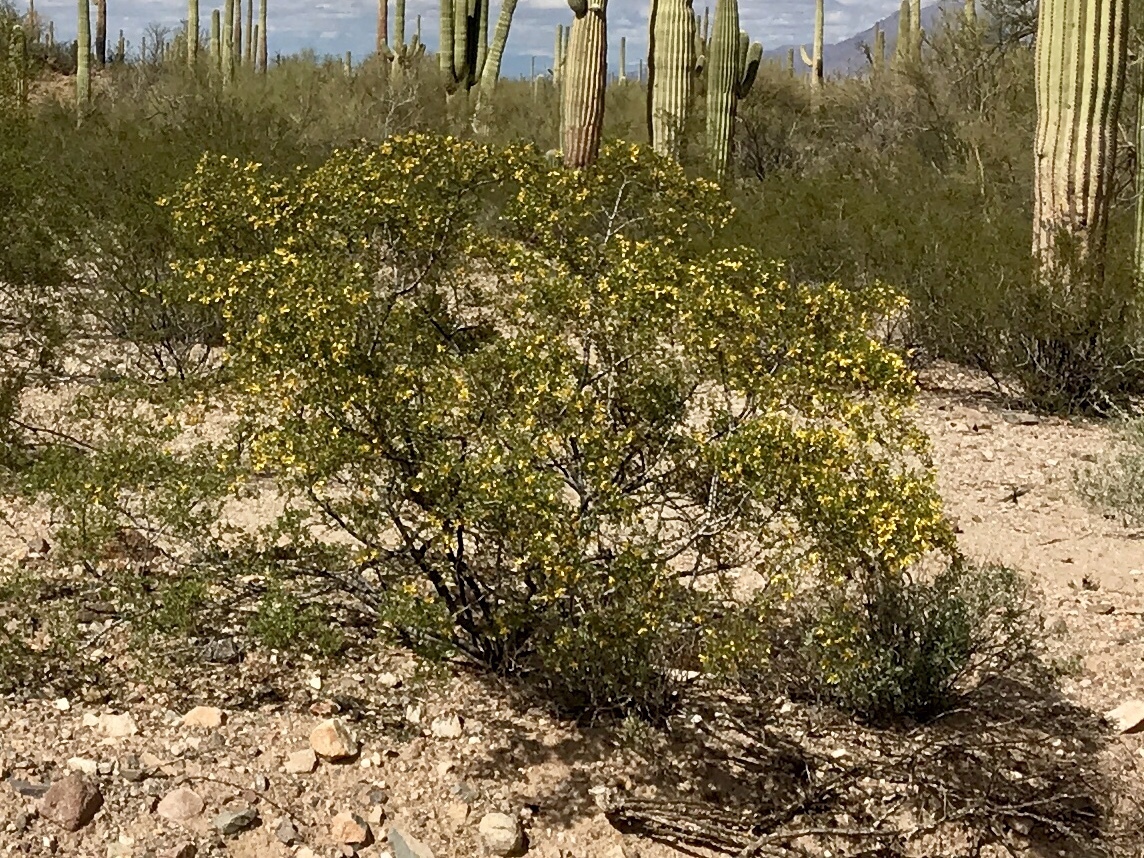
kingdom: Plantae
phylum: Tracheophyta
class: Magnoliopsida
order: Zygophyllales
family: Zygophyllaceae
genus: Larrea
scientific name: Larrea tridentata
